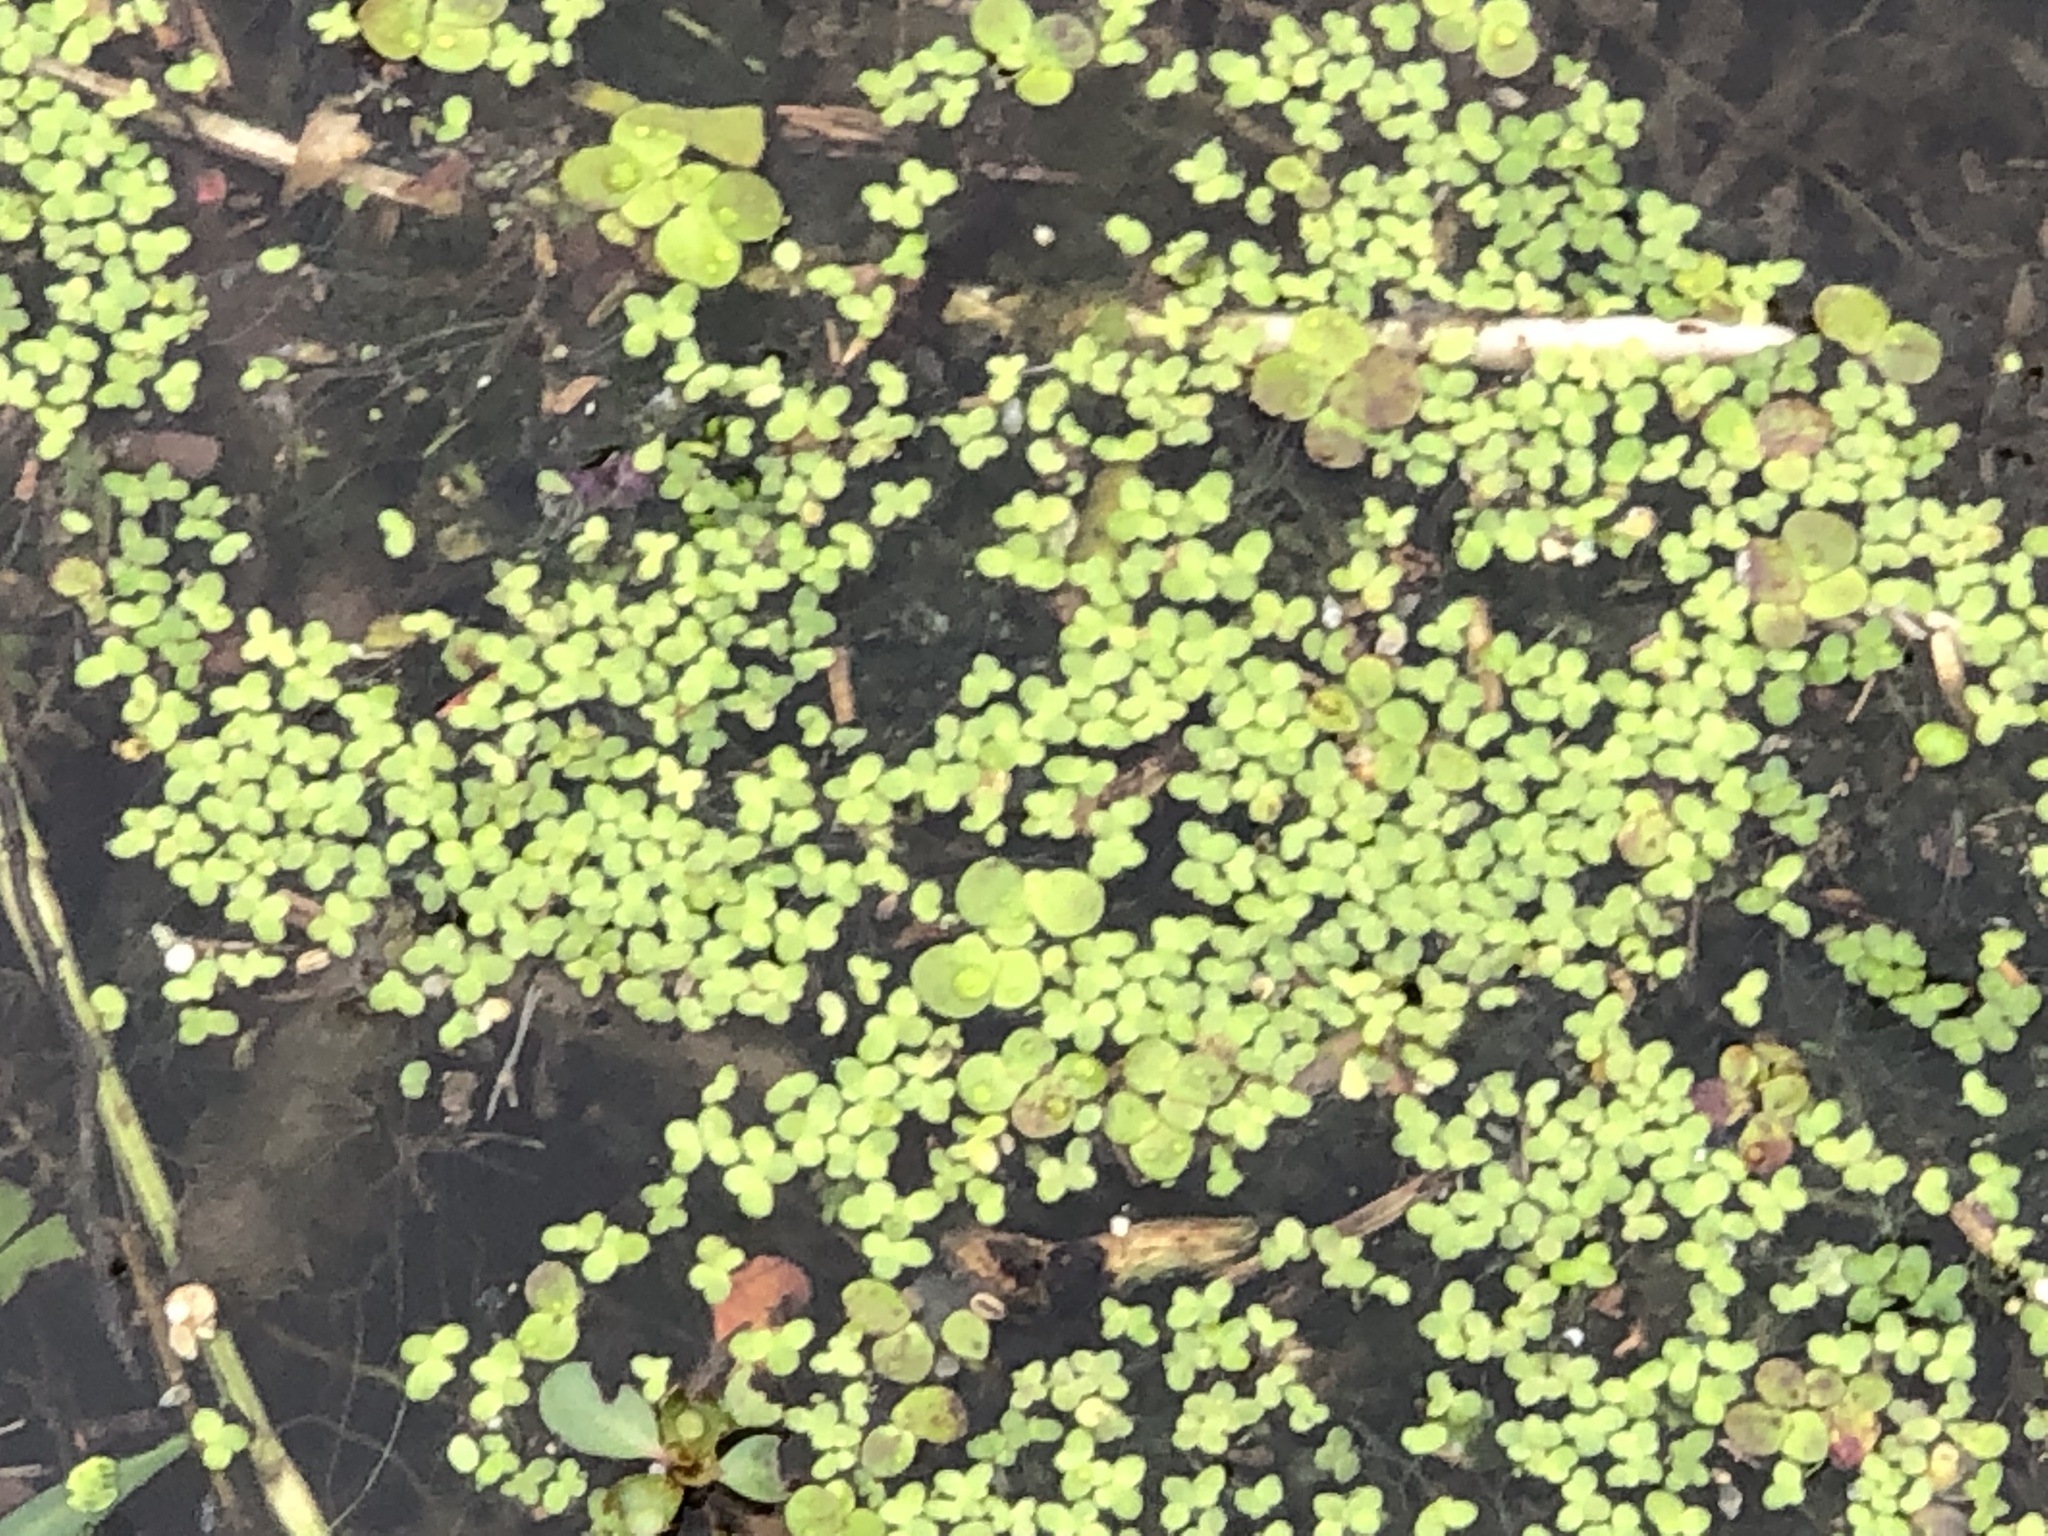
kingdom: Plantae
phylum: Tracheophyta
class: Liliopsida
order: Alismatales
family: Araceae
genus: Spirodela
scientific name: Spirodela polyrhiza
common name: Great duckweed
